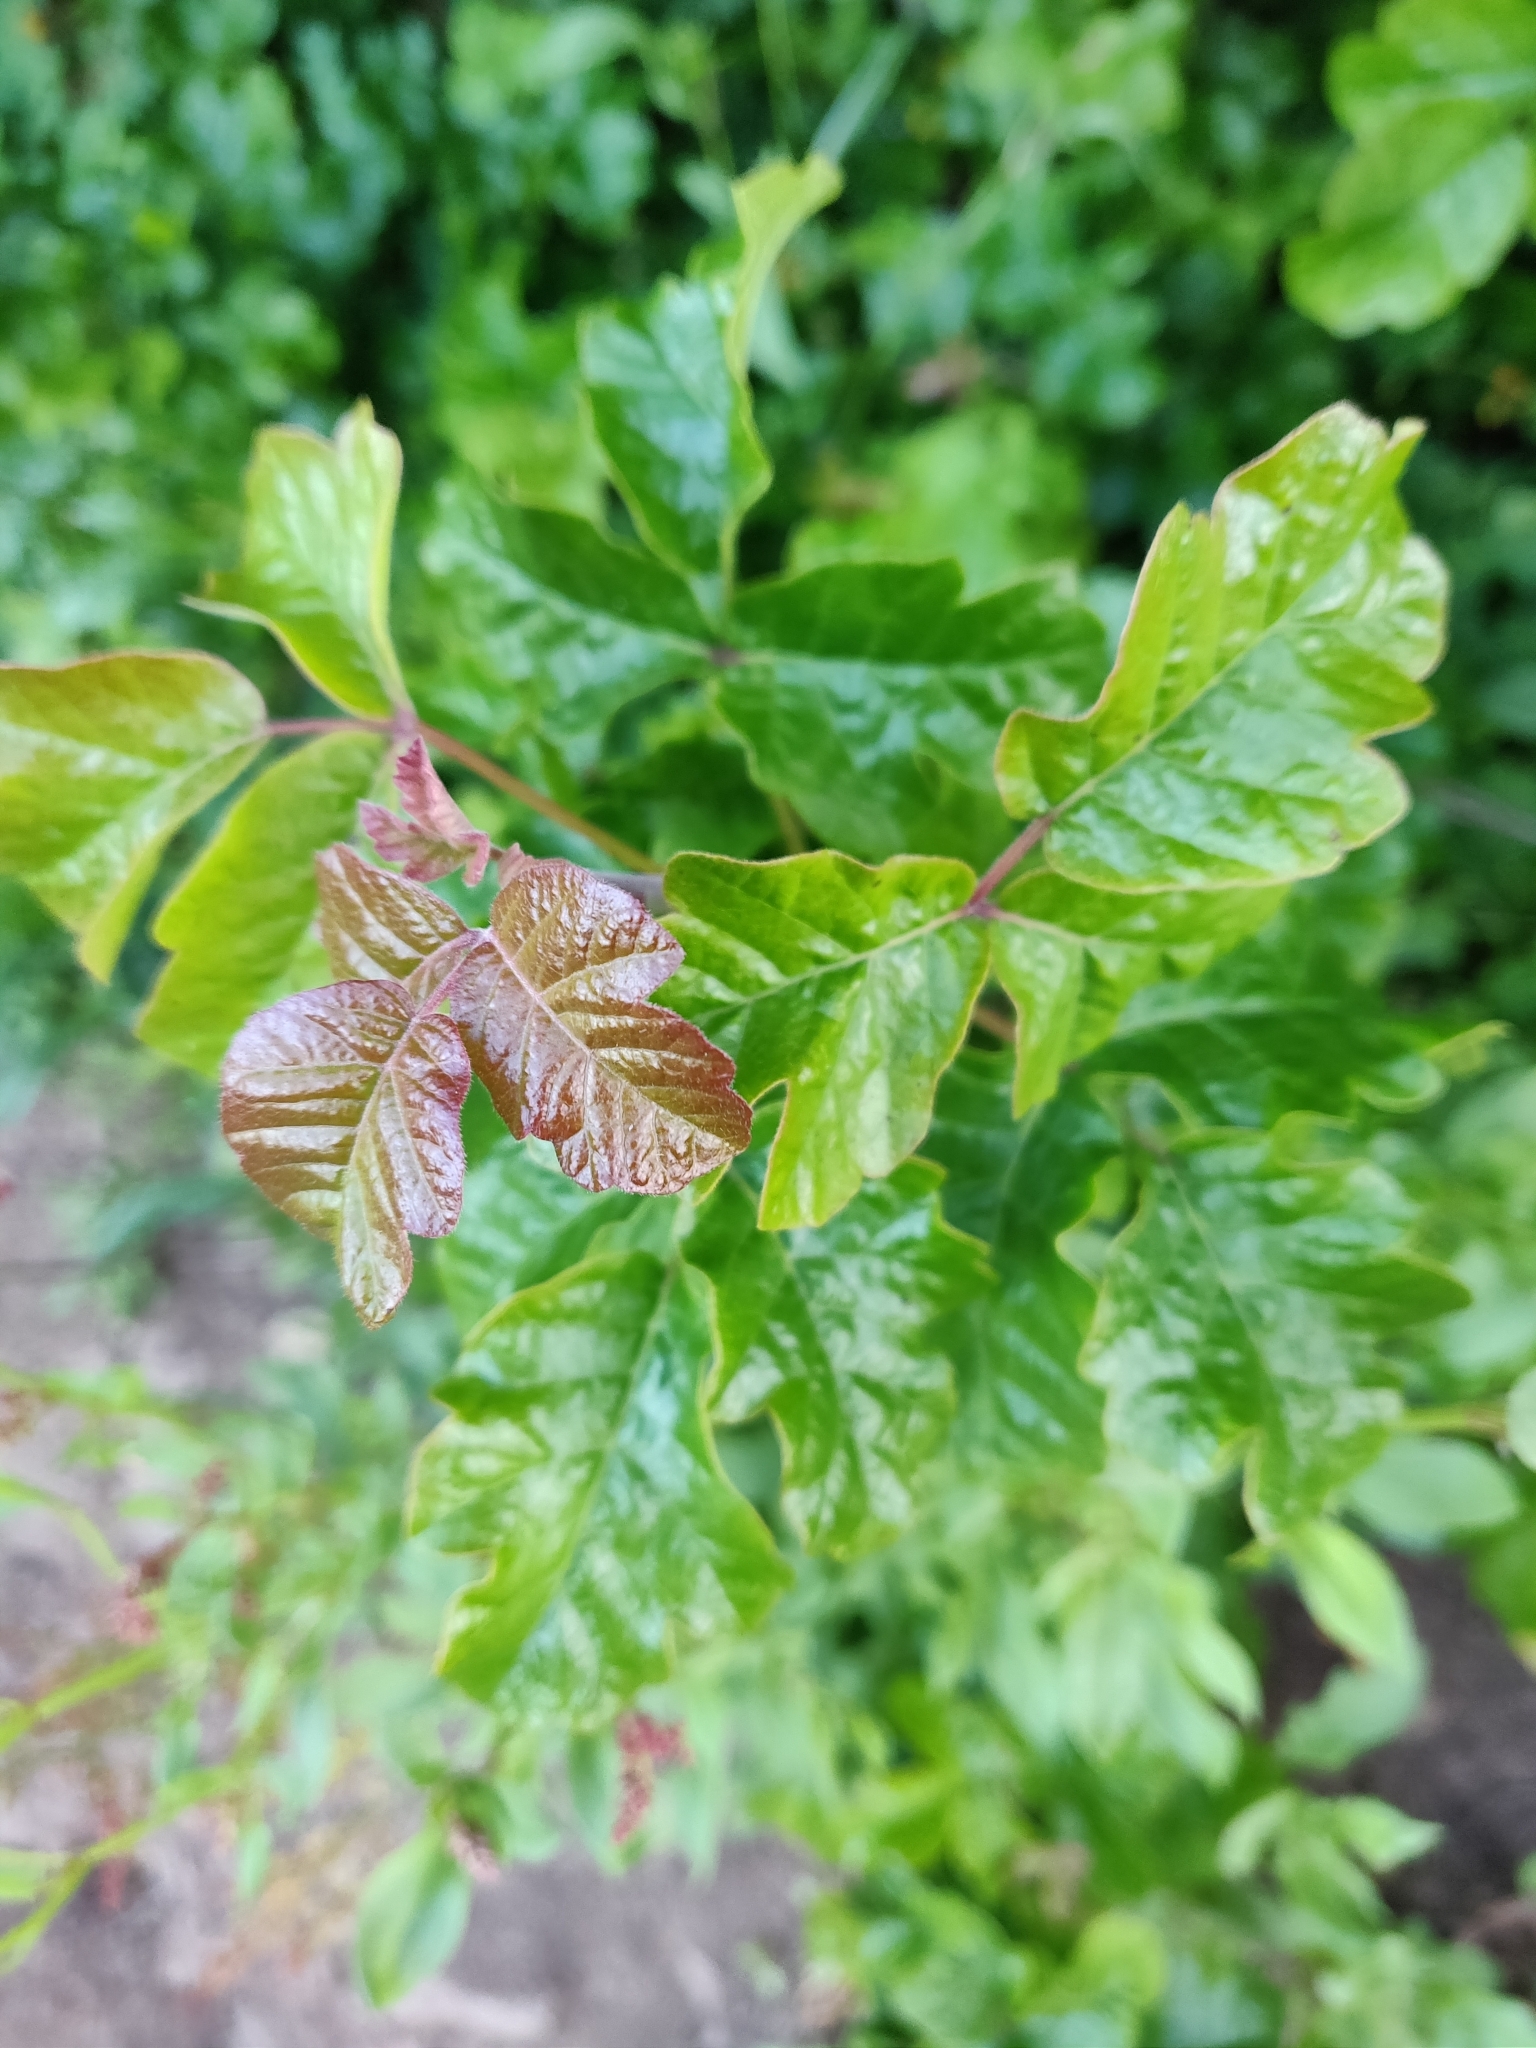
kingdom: Plantae
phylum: Tracheophyta
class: Magnoliopsida
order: Sapindales
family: Anacardiaceae
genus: Toxicodendron
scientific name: Toxicodendron diversilobum
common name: Pacific poison-oak
